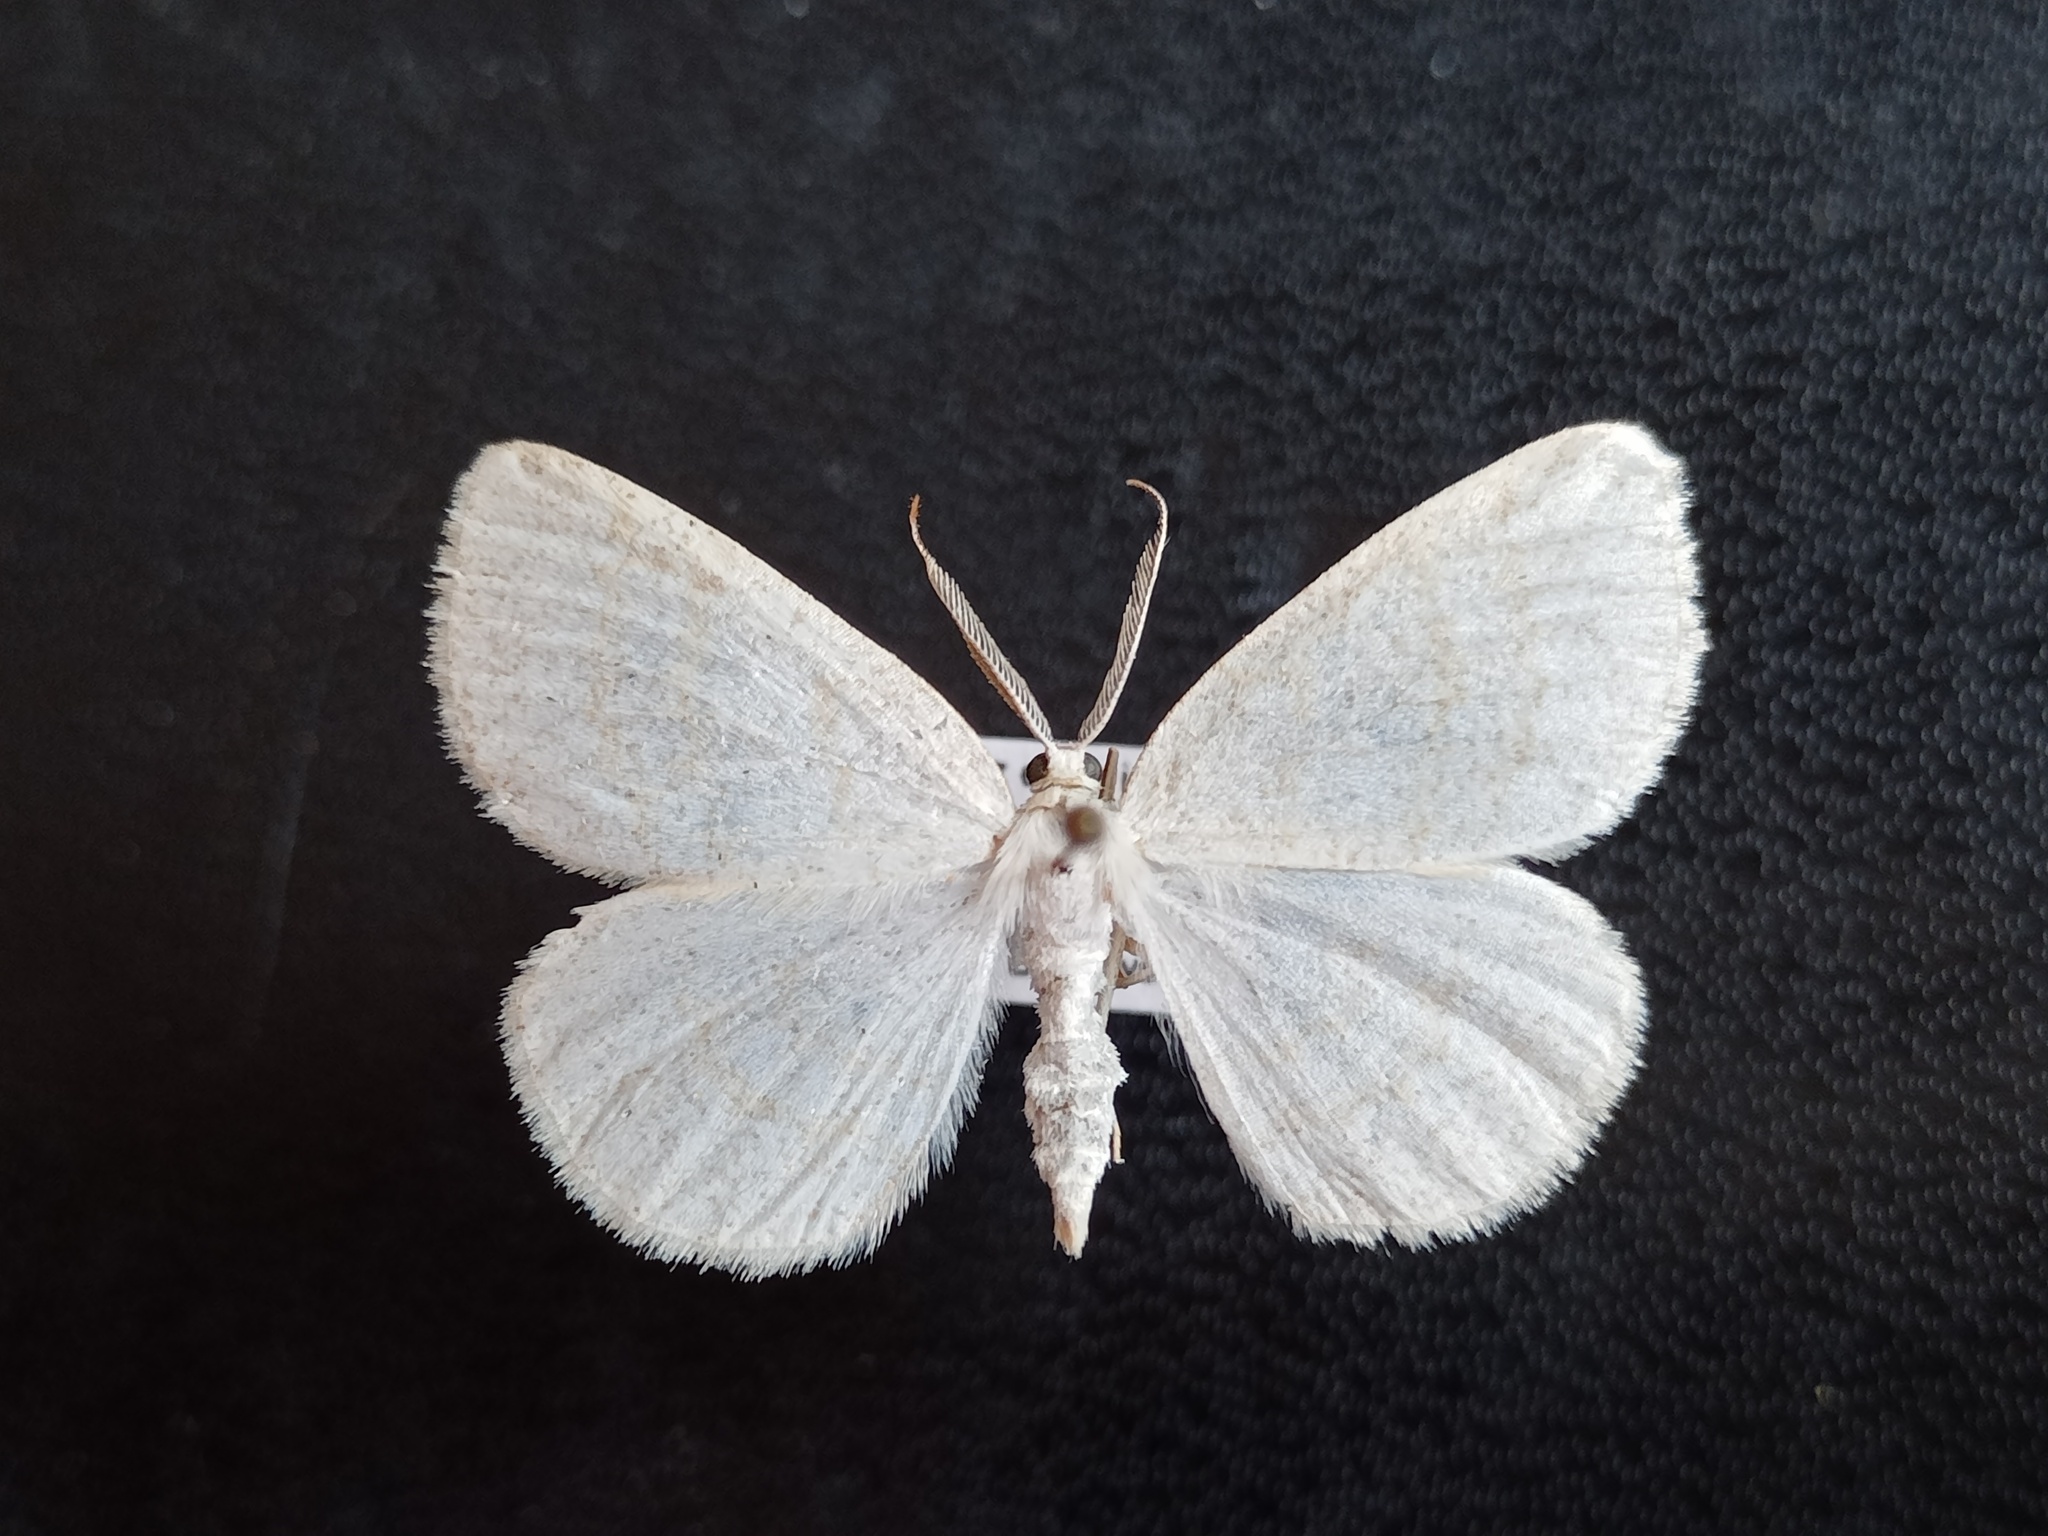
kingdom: Animalia
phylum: Arthropoda
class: Insecta
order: Lepidoptera
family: Geometridae
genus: Cabera
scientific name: Cabera exanthemata
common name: Common wave
